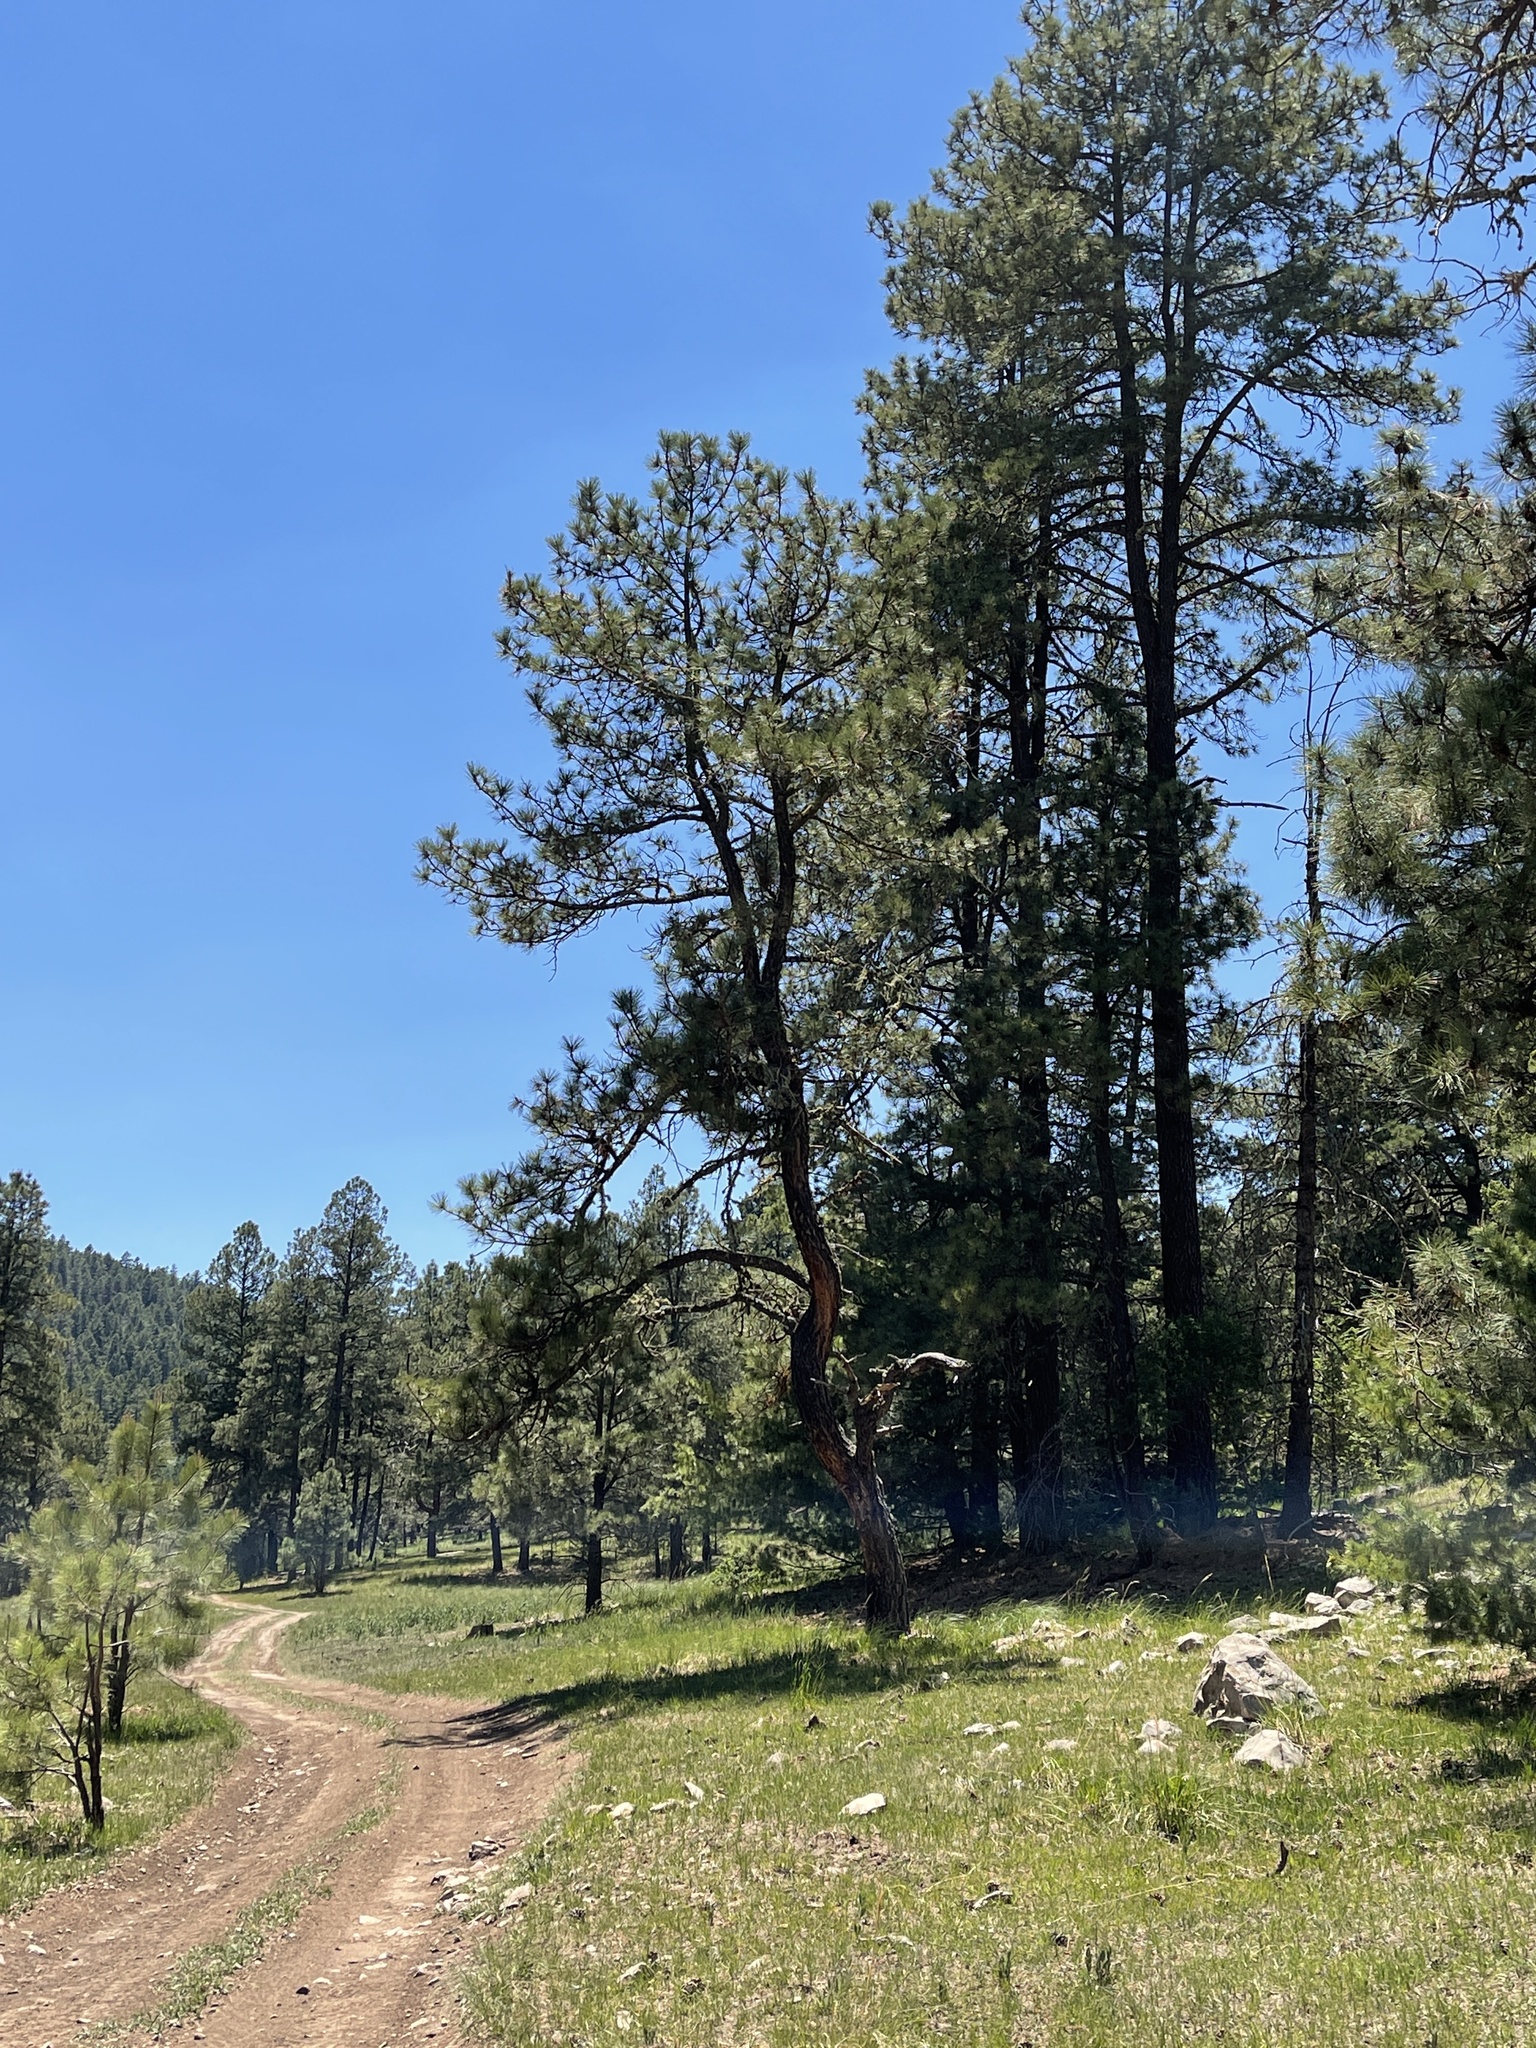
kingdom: Plantae
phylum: Tracheophyta
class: Pinopsida
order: Pinales
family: Pinaceae
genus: Pinus
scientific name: Pinus ponderosa
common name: Western yellow-pine
